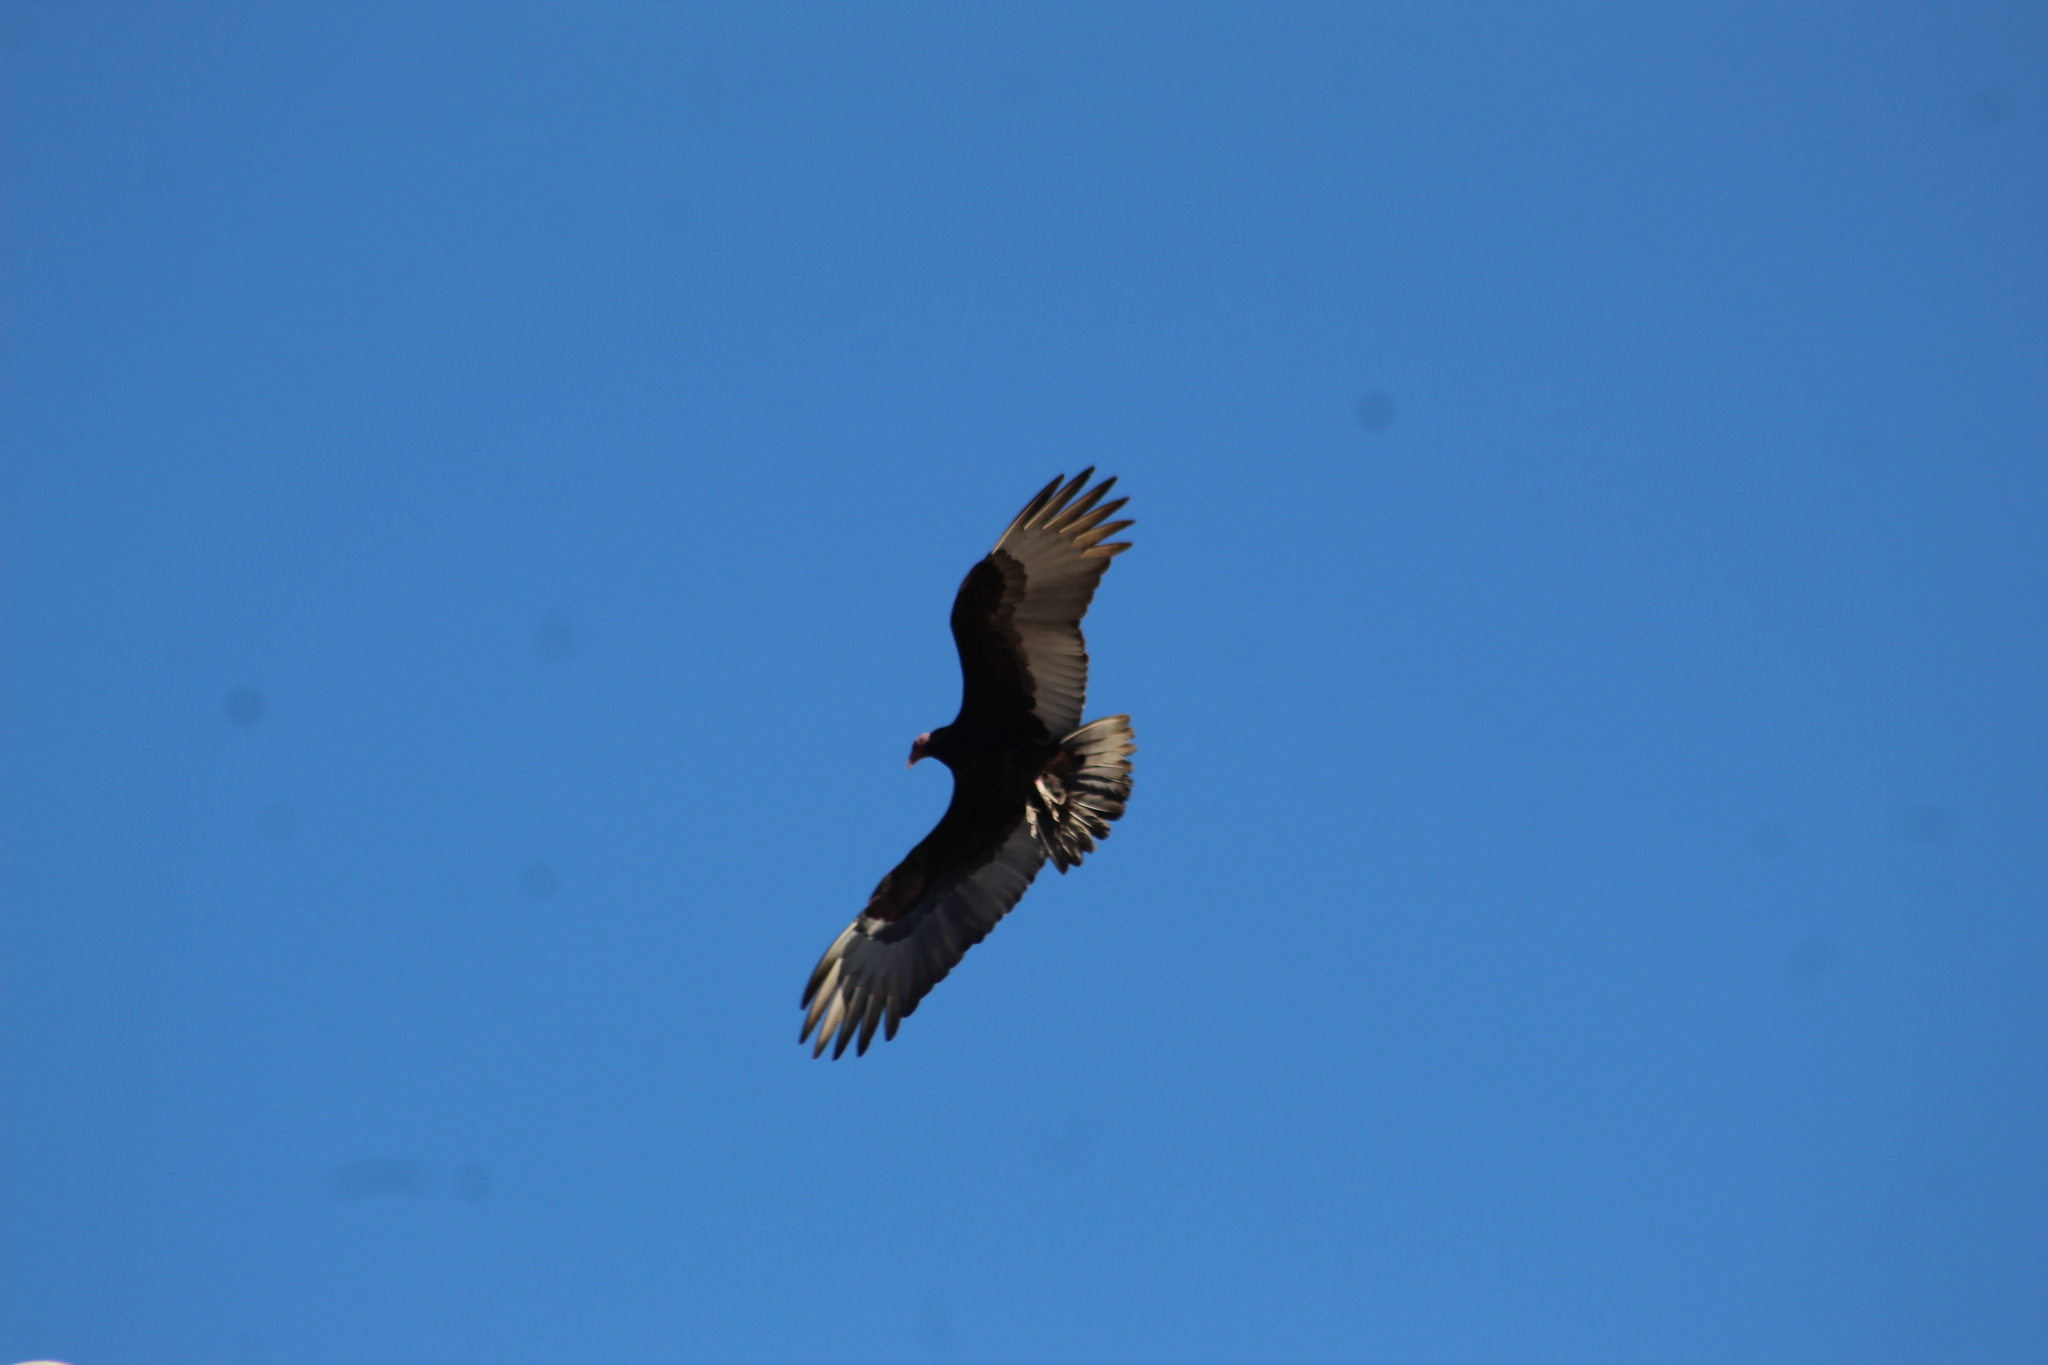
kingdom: Animalia
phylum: Chordata
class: Aves
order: Accipitriformes
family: Cathartidae
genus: Cathartes
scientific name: Cathartes aura
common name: Turkey vulture
